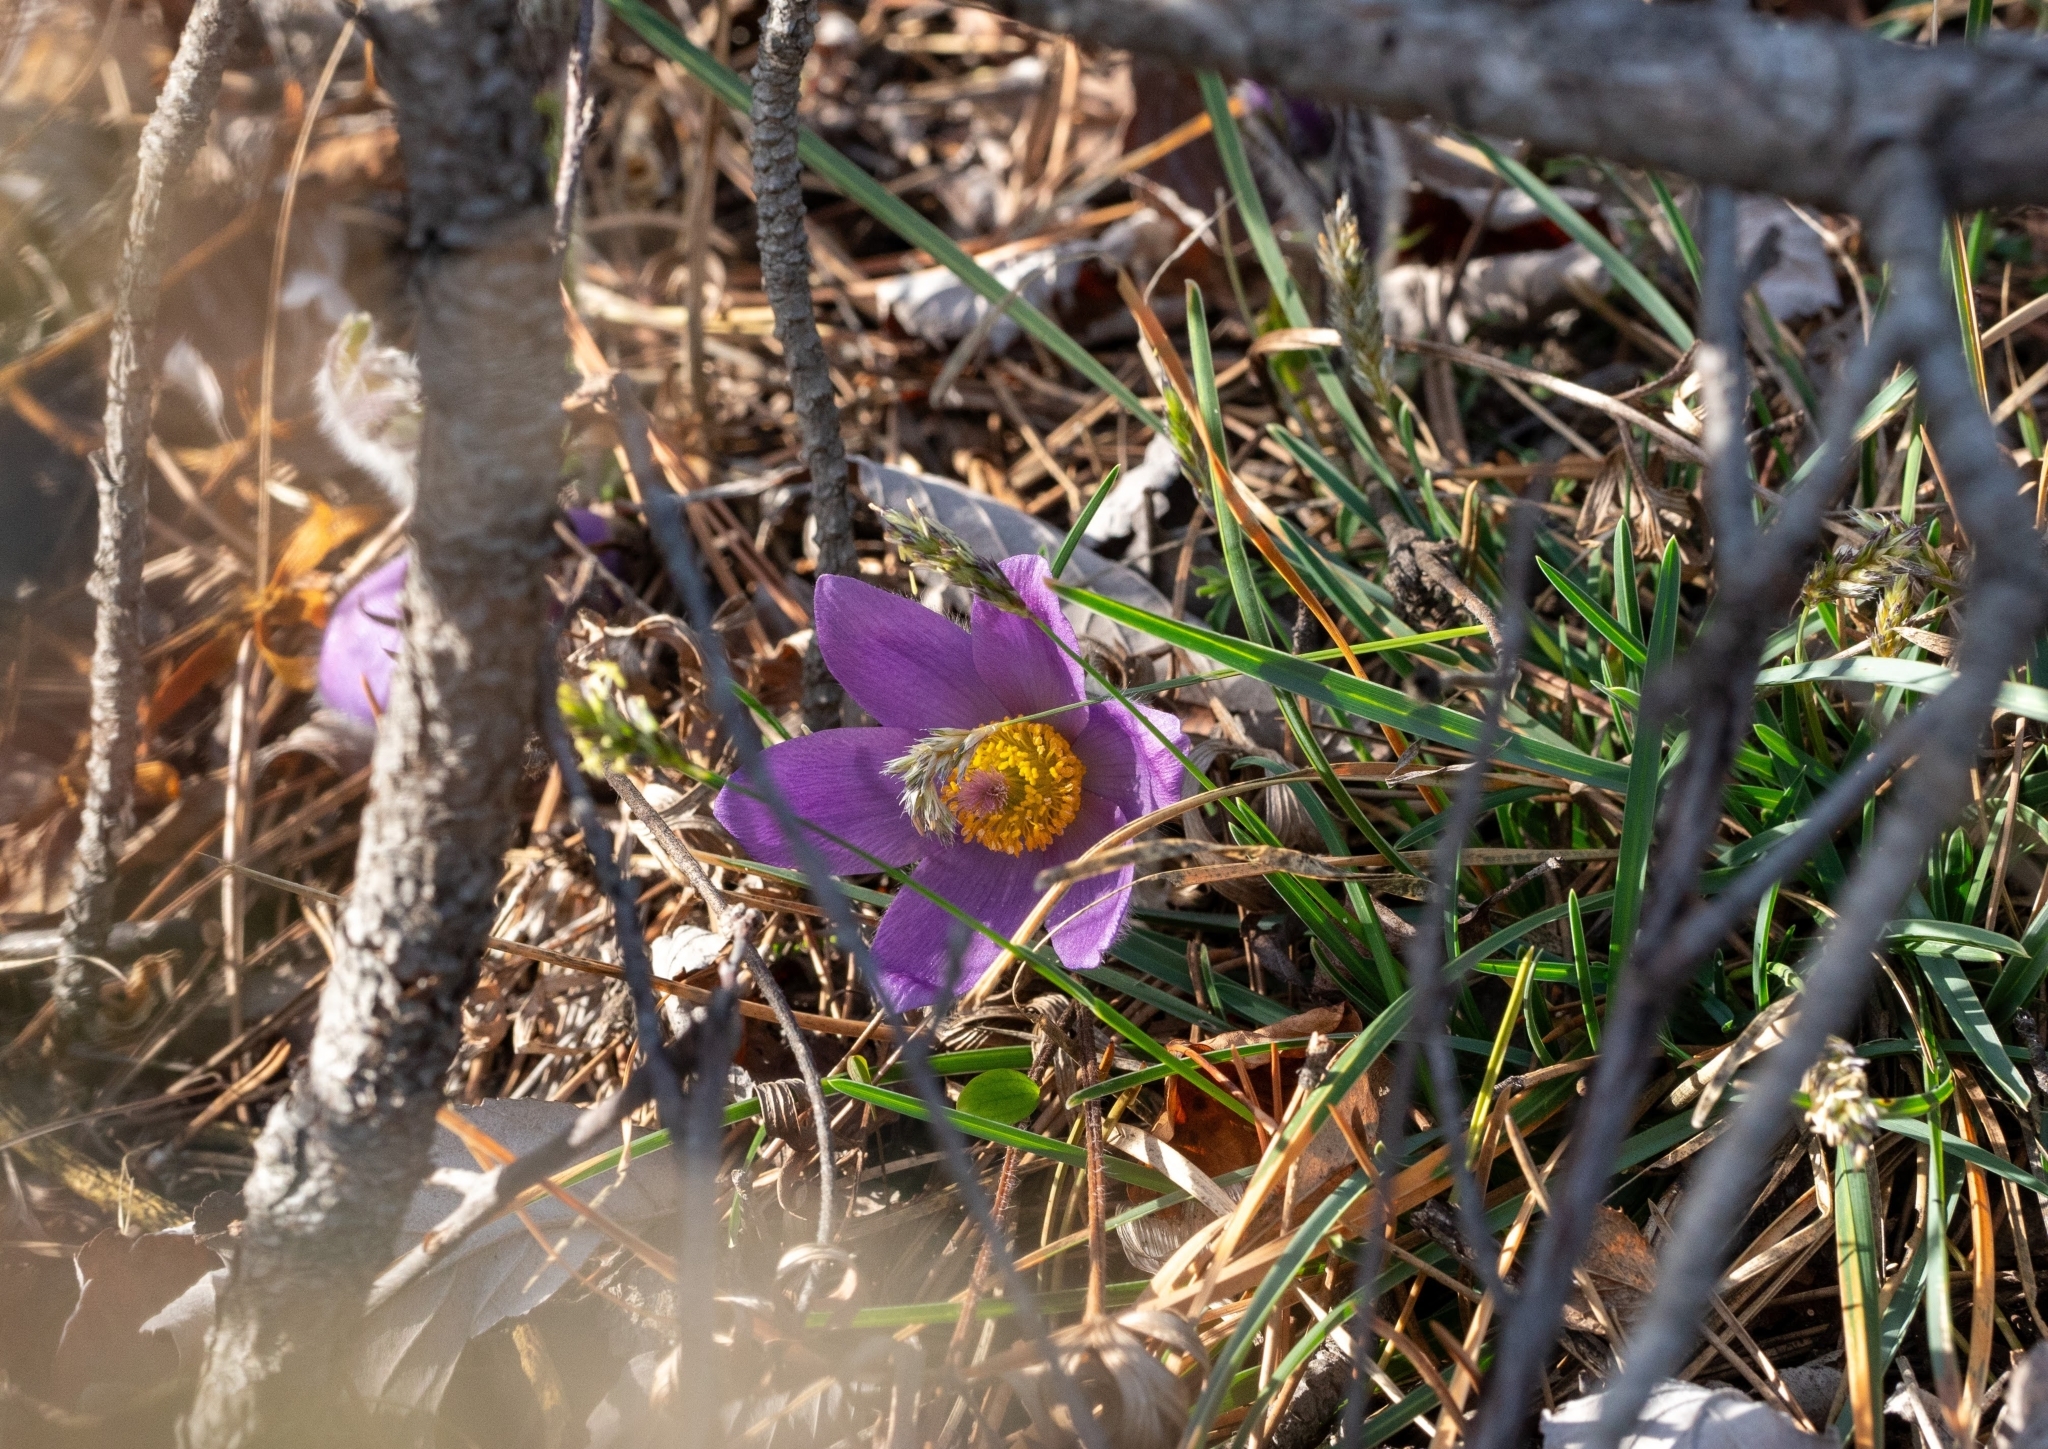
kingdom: Plantae
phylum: Tracheophyta
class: Magnoliopsida
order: Ranunculales
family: Ranunculaceae
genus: Pulsatilla
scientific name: Pulsatilla grandis
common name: Greater pasque flower
